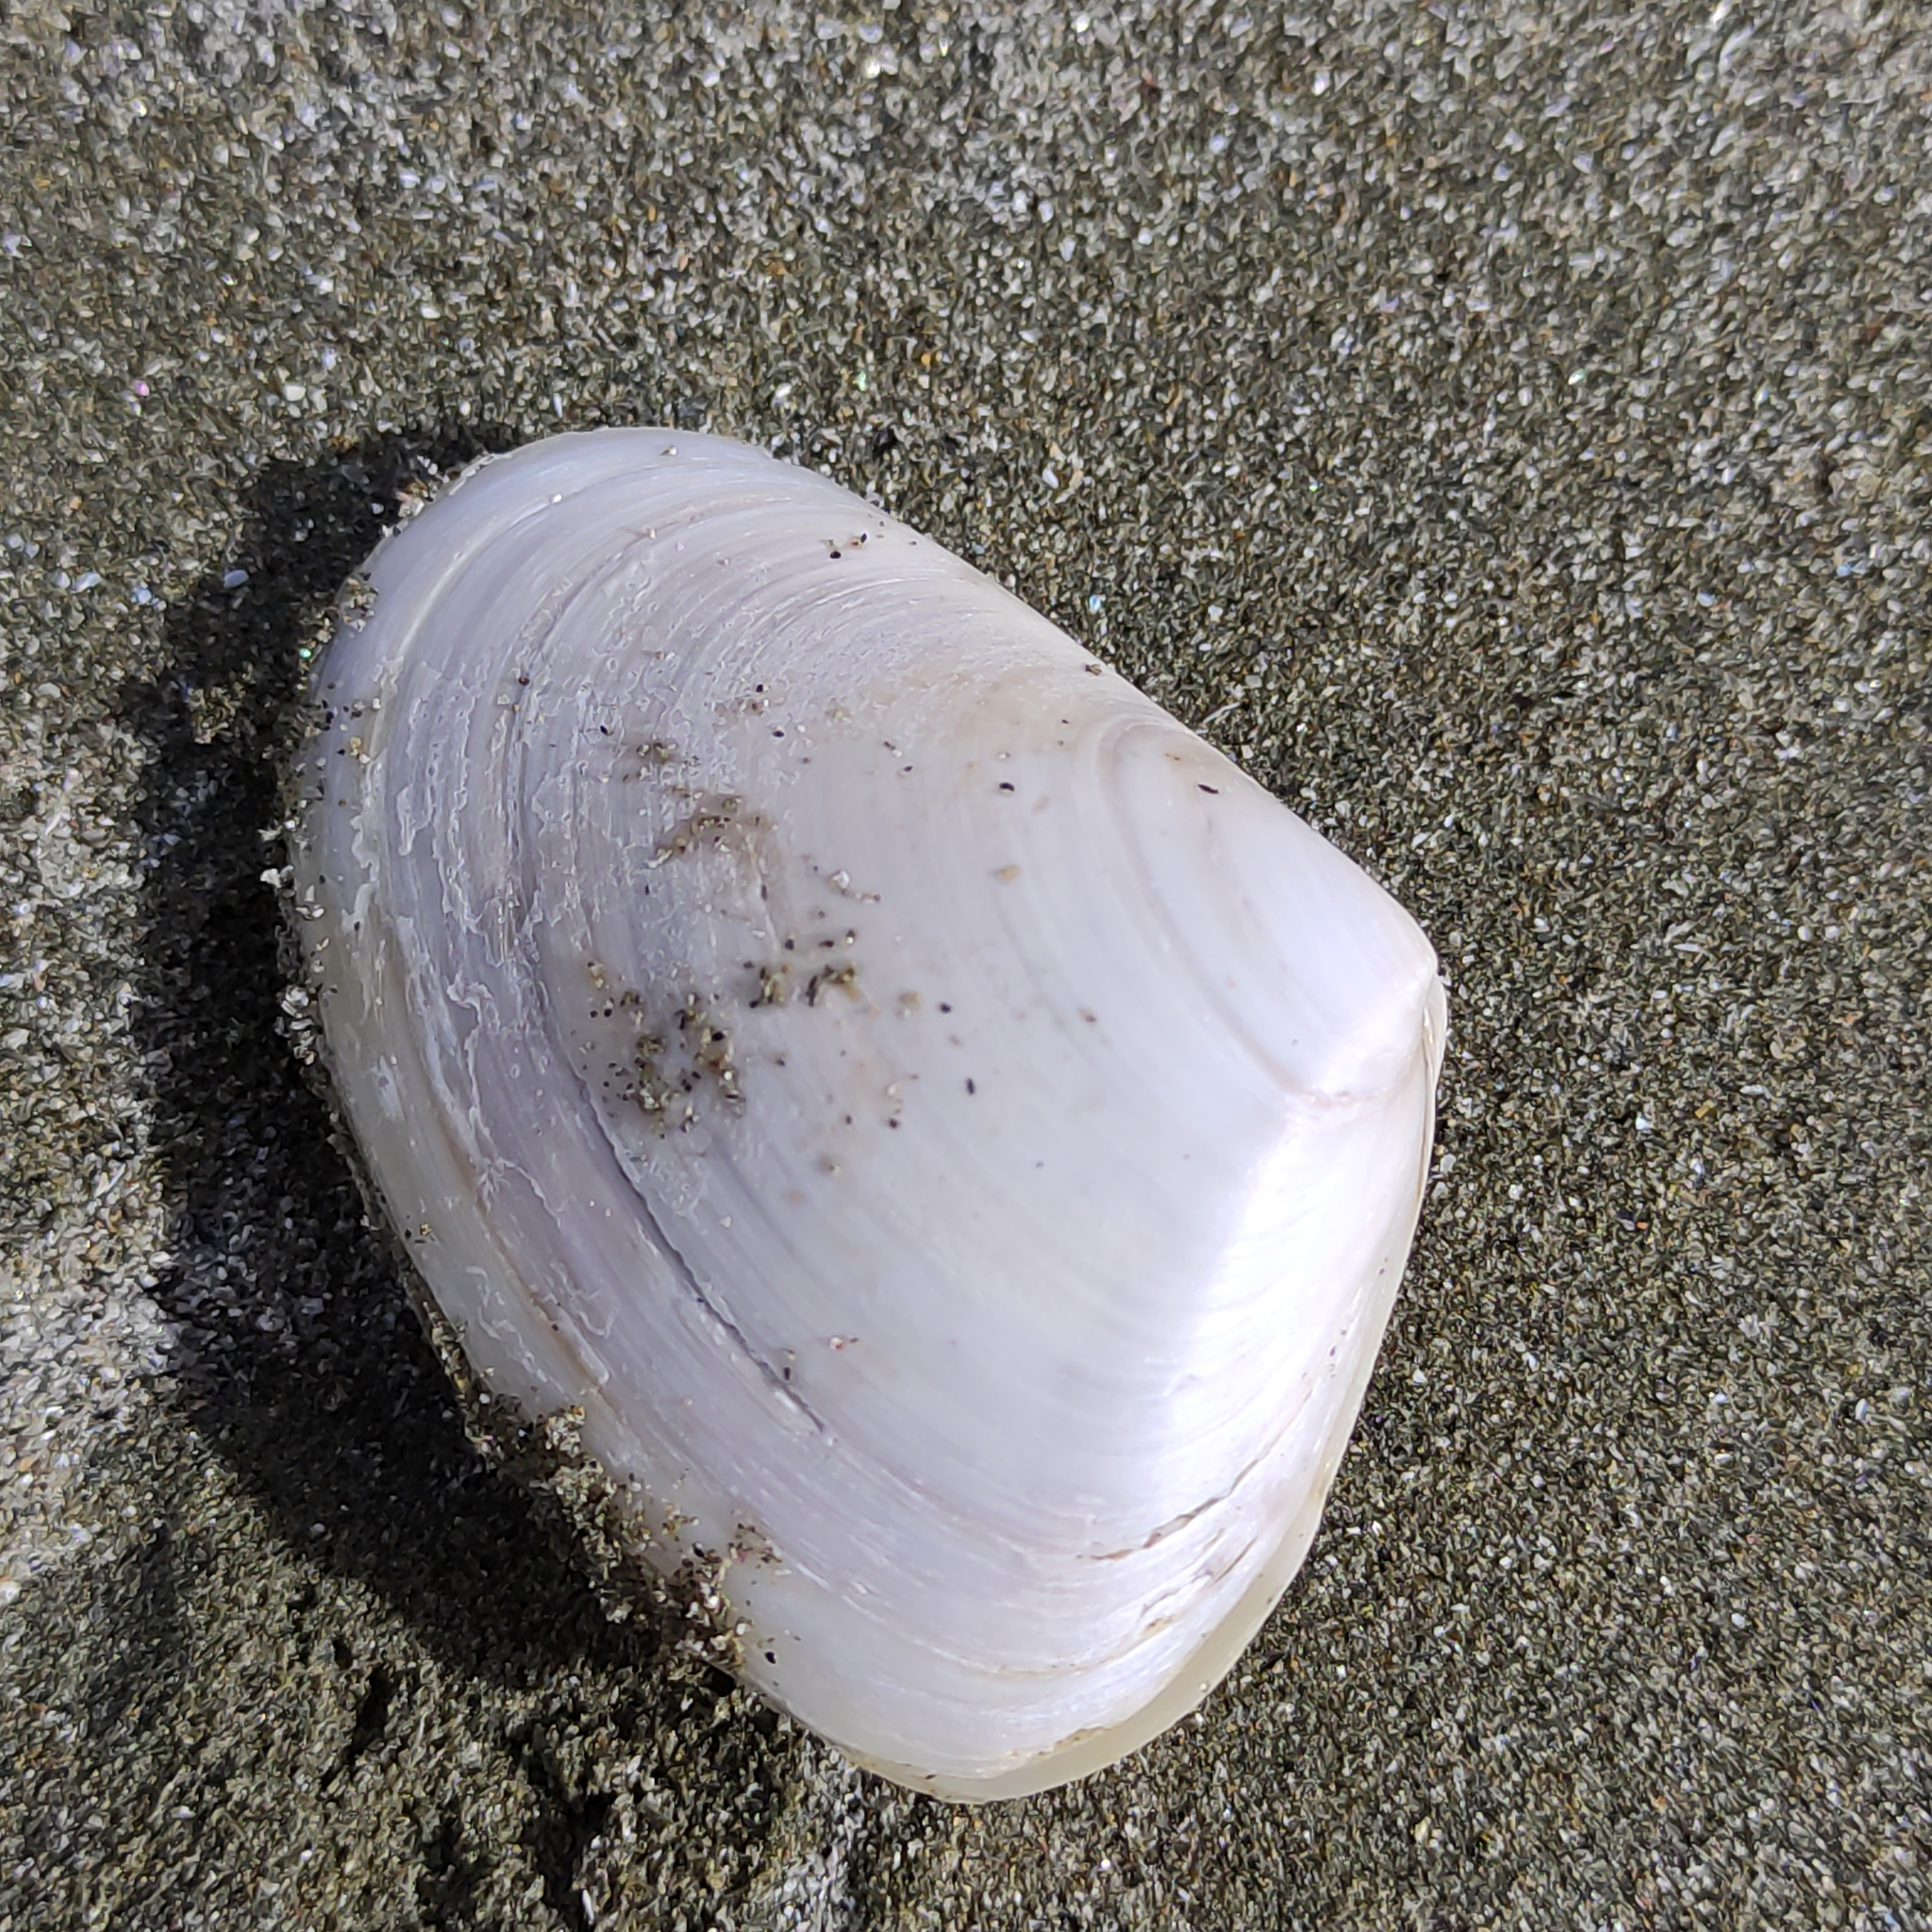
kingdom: Animalia
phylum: Mollusca
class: Bivalvia
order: Venerida
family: Mesodesmatidae
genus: Paphies
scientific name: Paphies donacina
